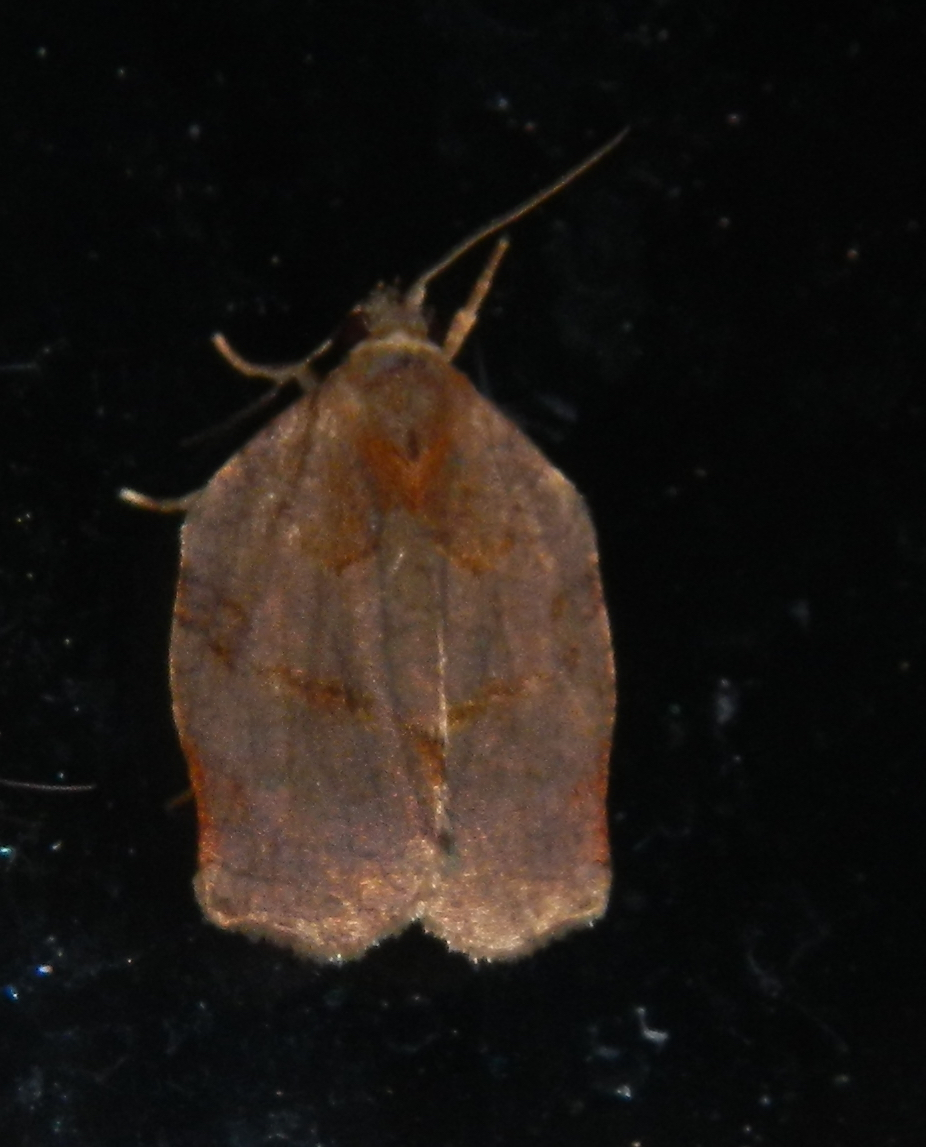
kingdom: Animalia
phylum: Arthropoda
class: Insecta
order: Lepidoptera
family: Tortricidae
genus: Archips
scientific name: Archips purpurana
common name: Omnivorous leafroller
